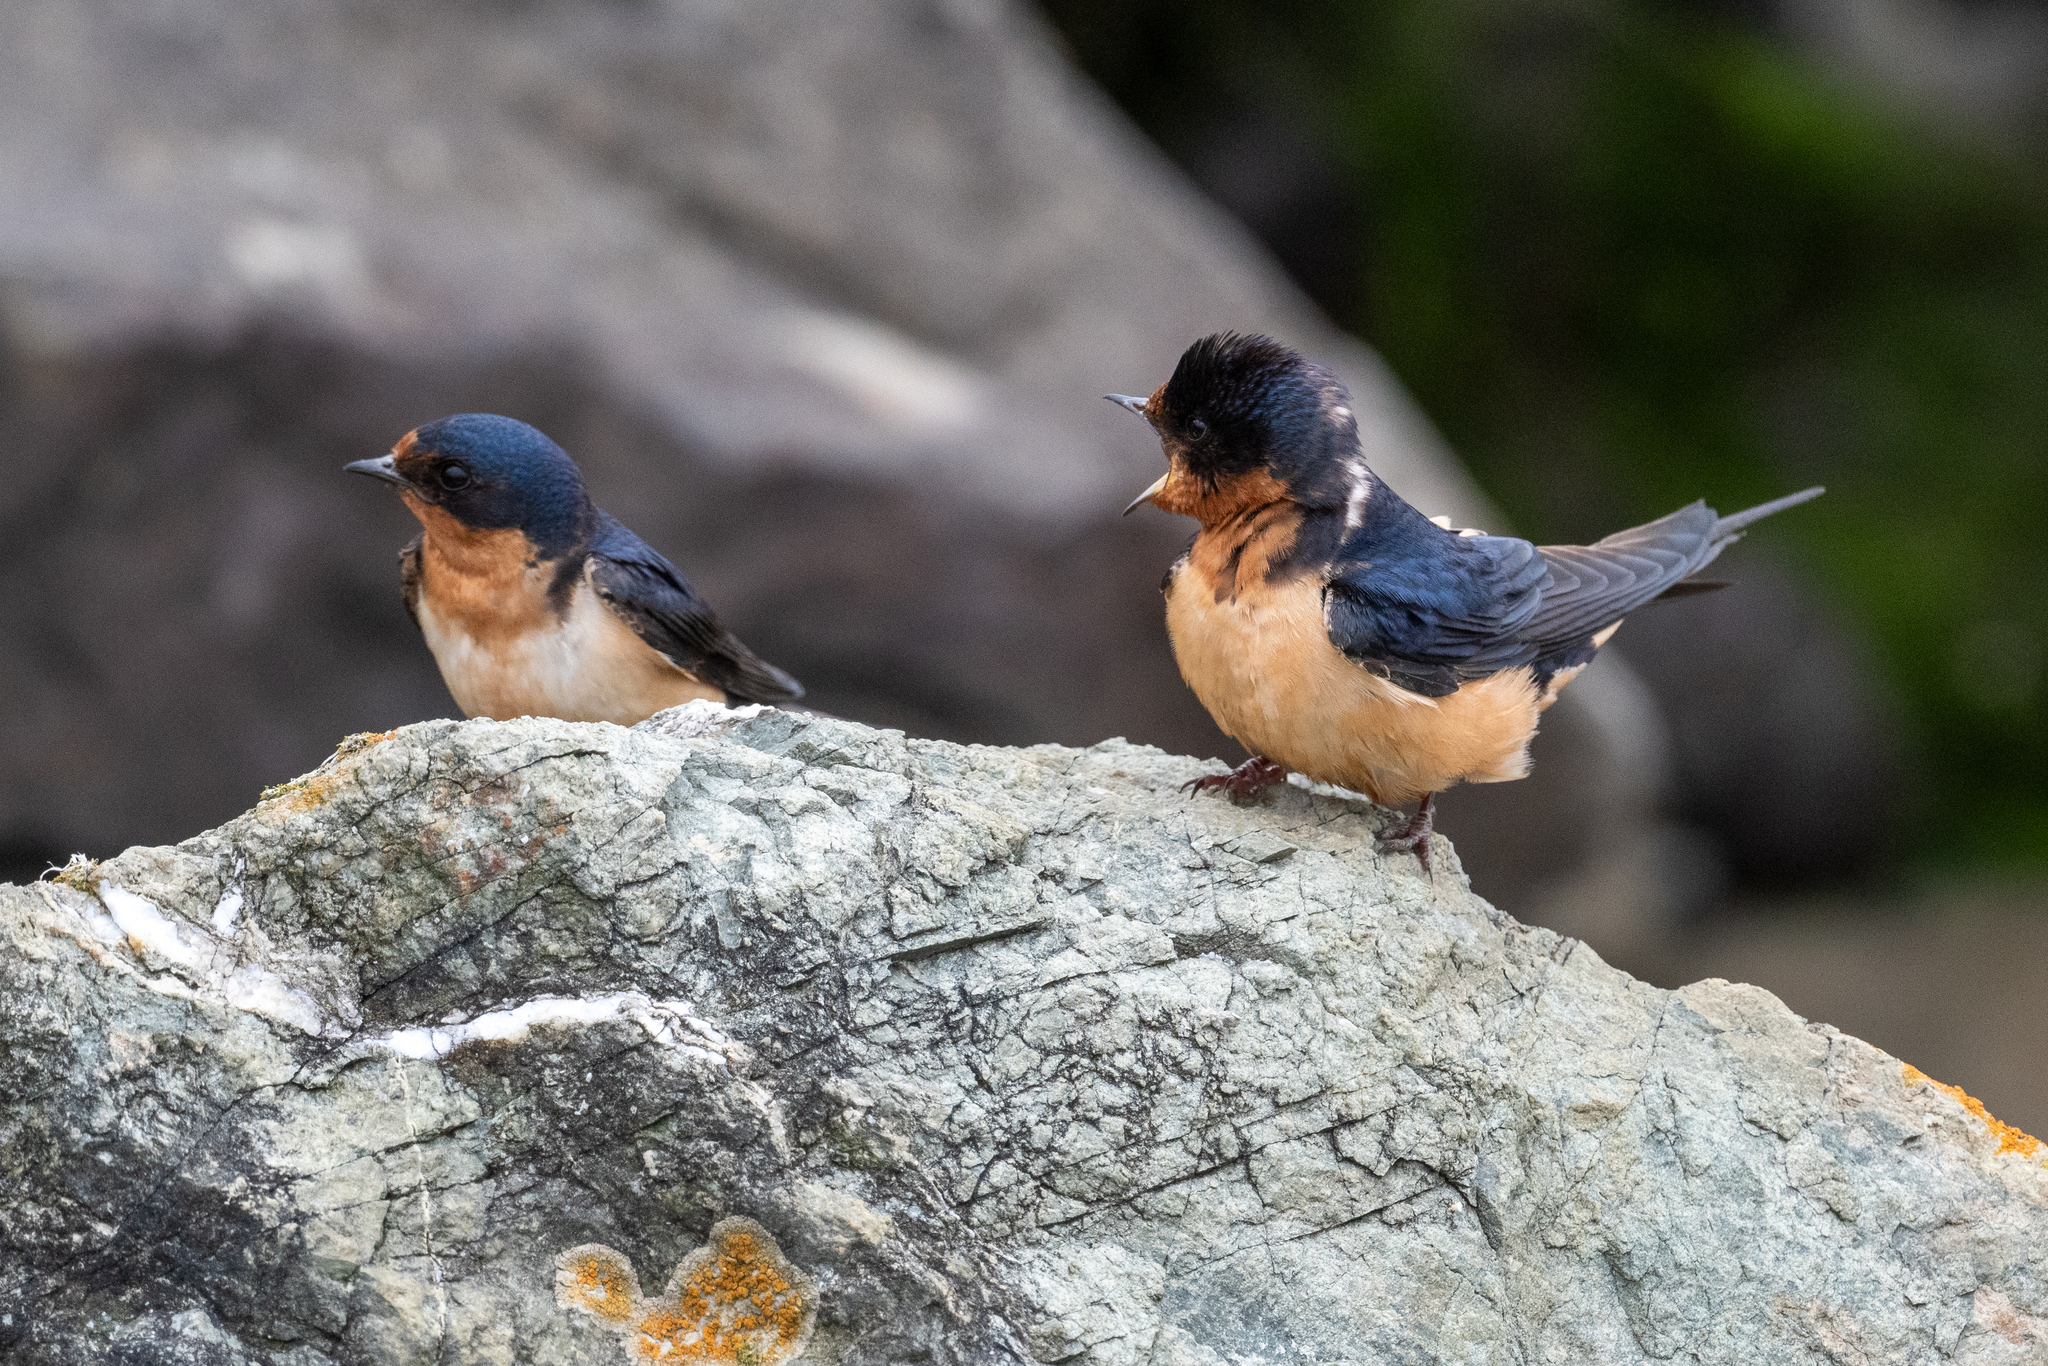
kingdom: Animalia
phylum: Chordata
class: Aves
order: Passeriformes
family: Hirundinidae
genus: Hirundo
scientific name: Hirundo rustica
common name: Barn swallow
